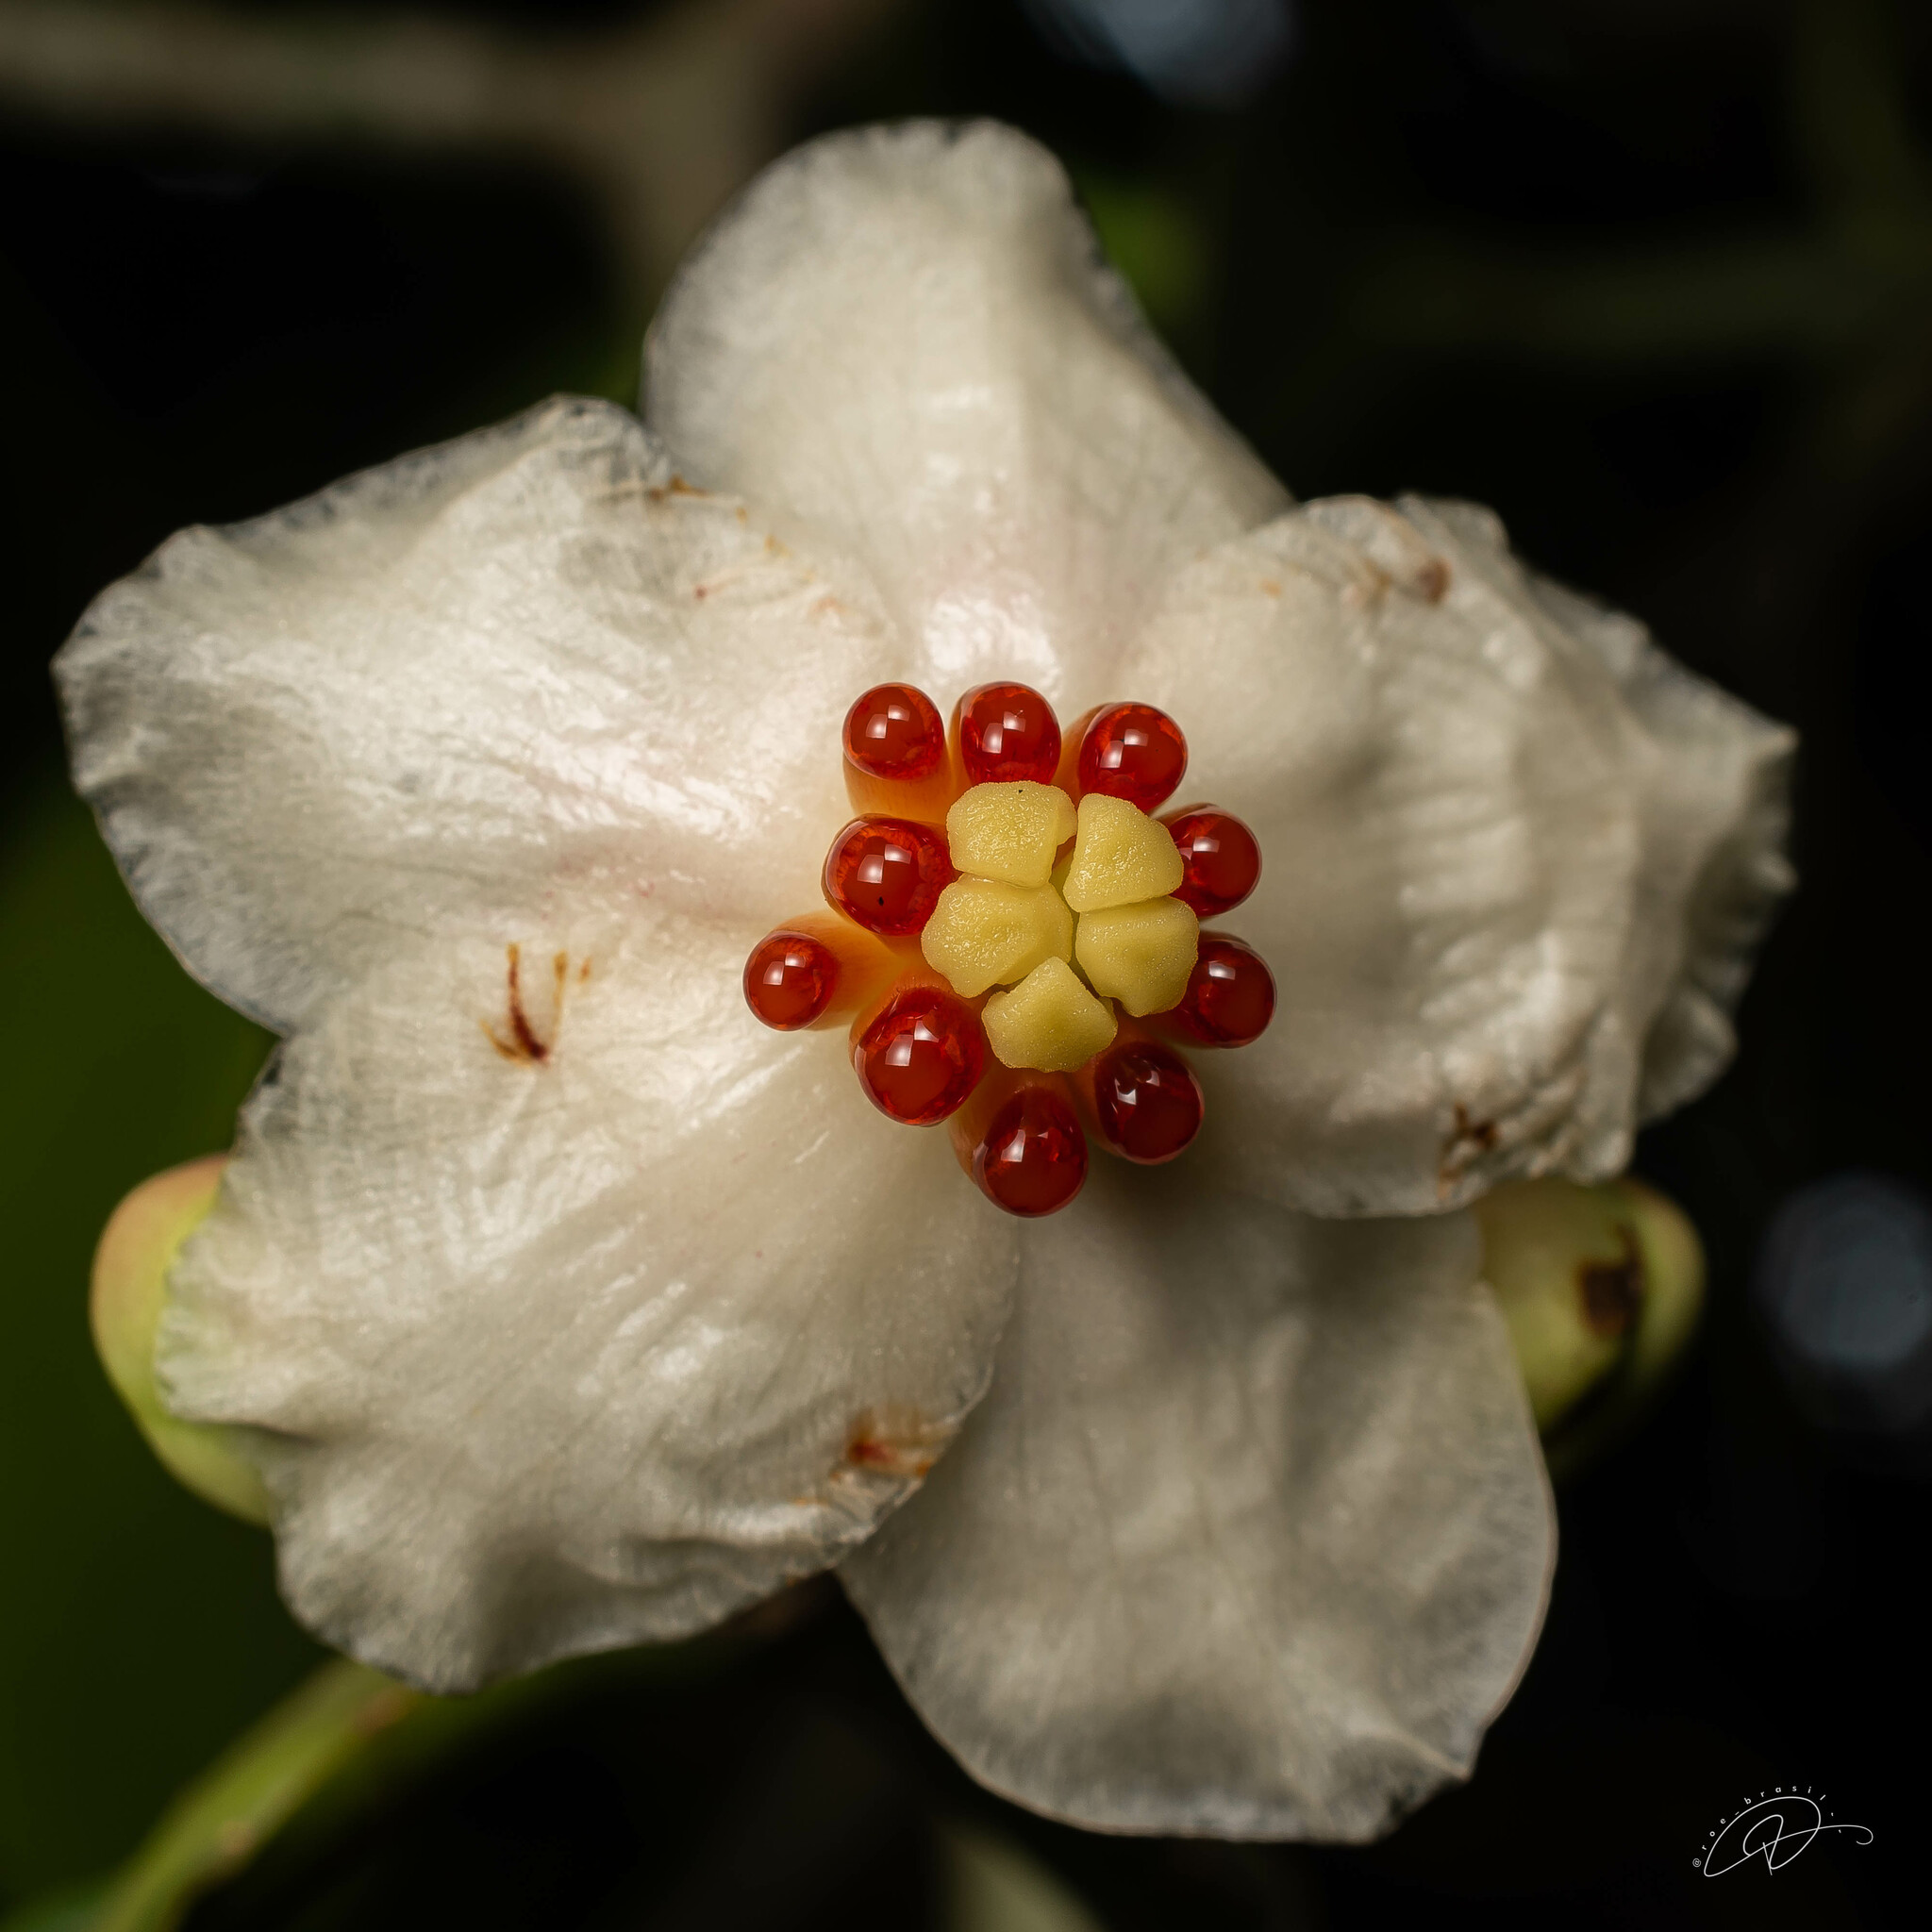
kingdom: Plantae
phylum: Tracheophyta
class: Magnoliopsida
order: Malpighiales
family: Clusiaceae
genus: Clusia
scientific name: Clusia fluminensis
